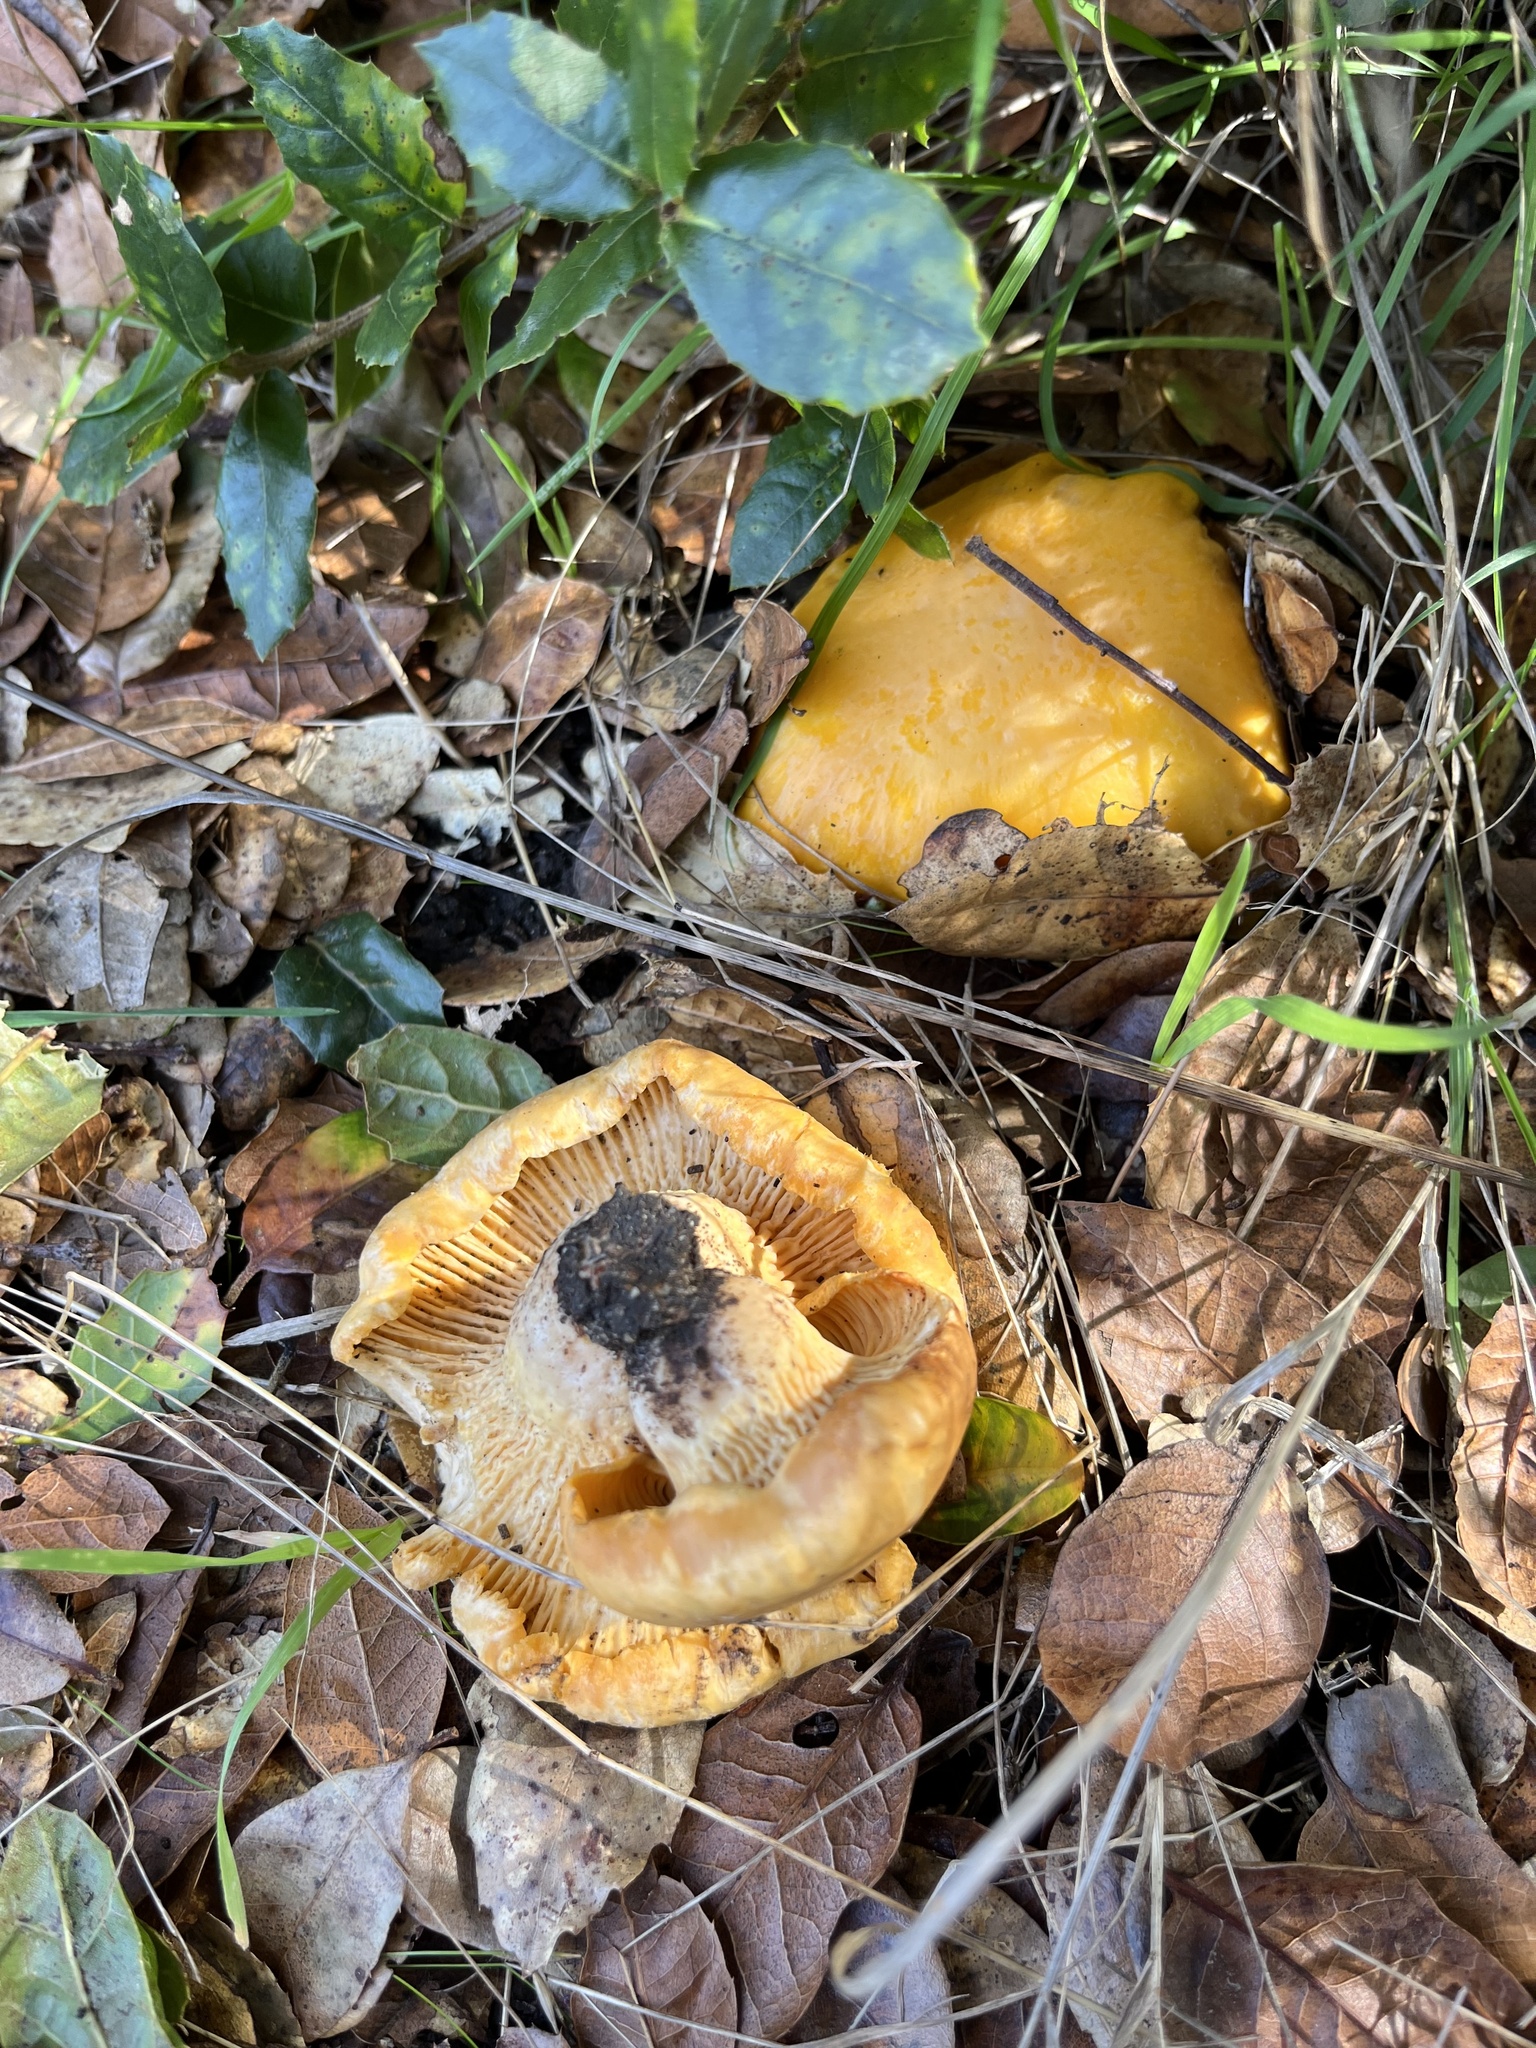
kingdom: Fungi
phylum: Basidiomycota
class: Agaricomycetes
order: Cantharellales
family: Hydnaceae
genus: Cantharellus
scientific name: Cantharellus californicus
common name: California golden chanterelle
